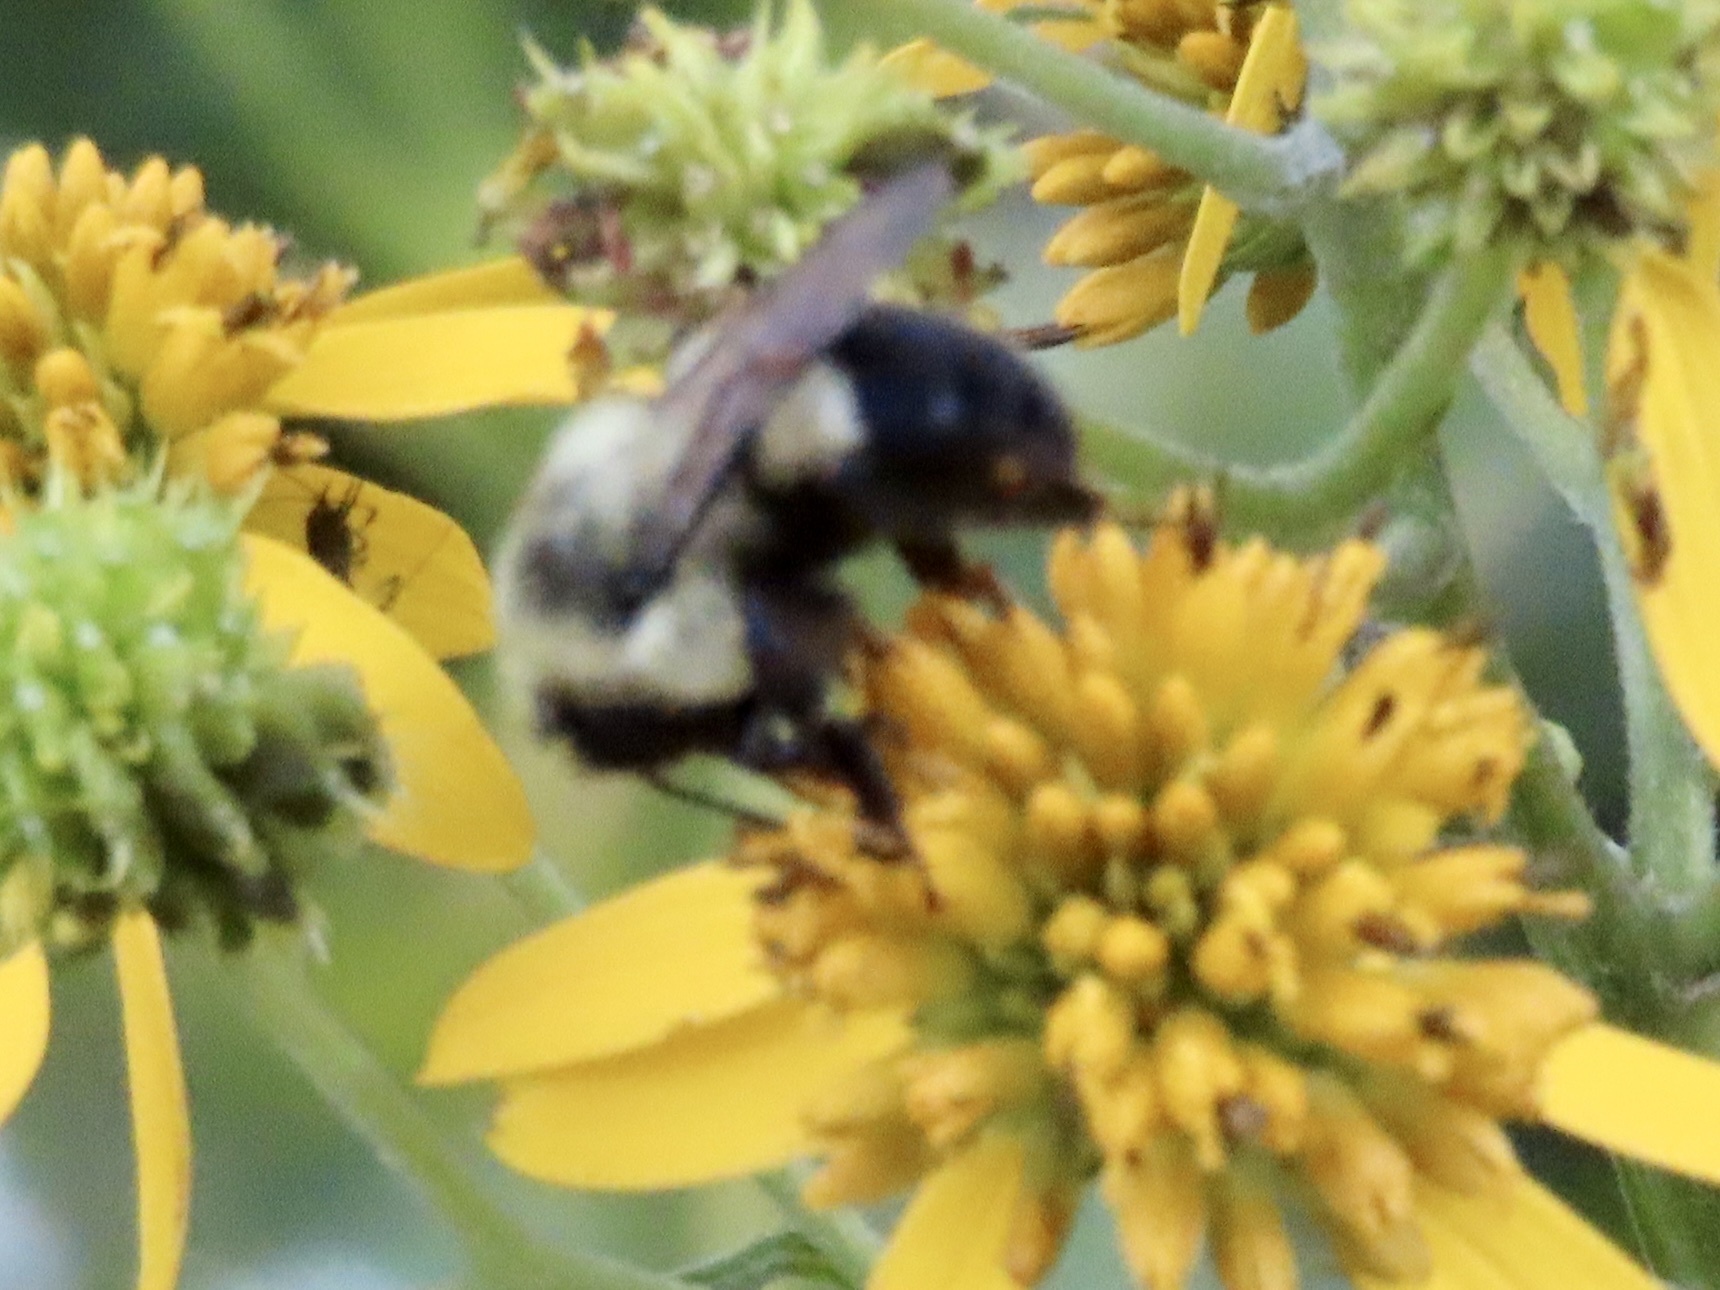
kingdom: Animalia
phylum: Arthropoda
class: Insecta
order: Hymenoptera
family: Apidae
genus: Bombus
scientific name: Bombus impatiens
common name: Common eastern bumble bee
